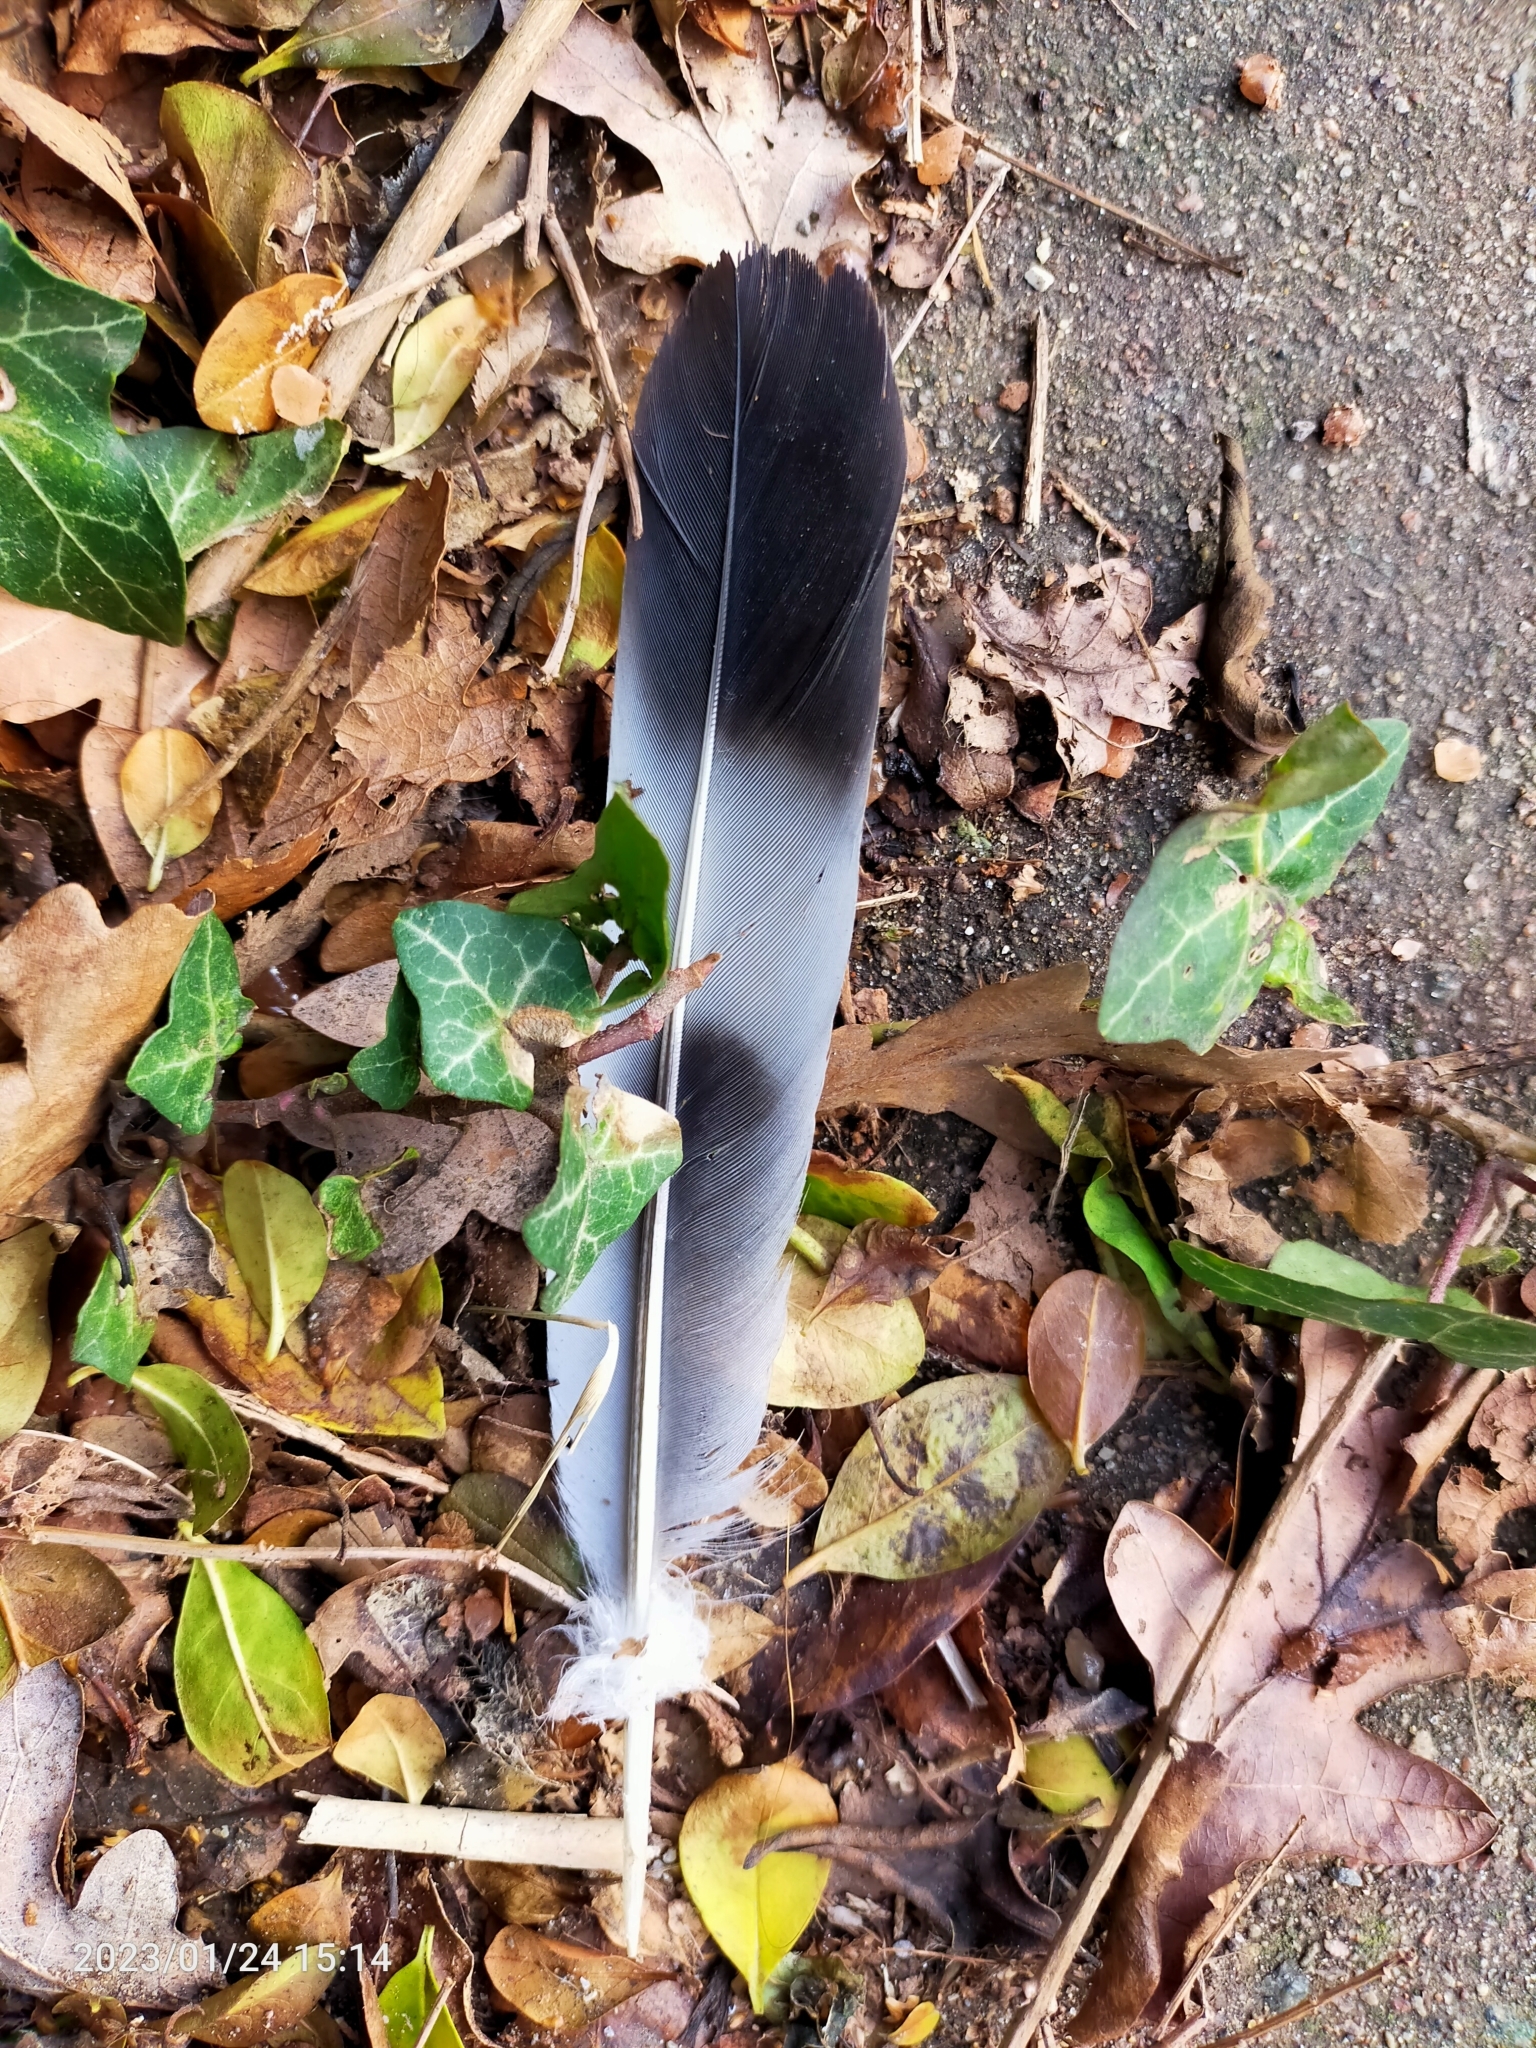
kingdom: Animalia
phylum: Chordata
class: Aves
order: Columbiformes
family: Columbidae
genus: Columba
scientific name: Columba palumbus
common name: Common wood pigeon
